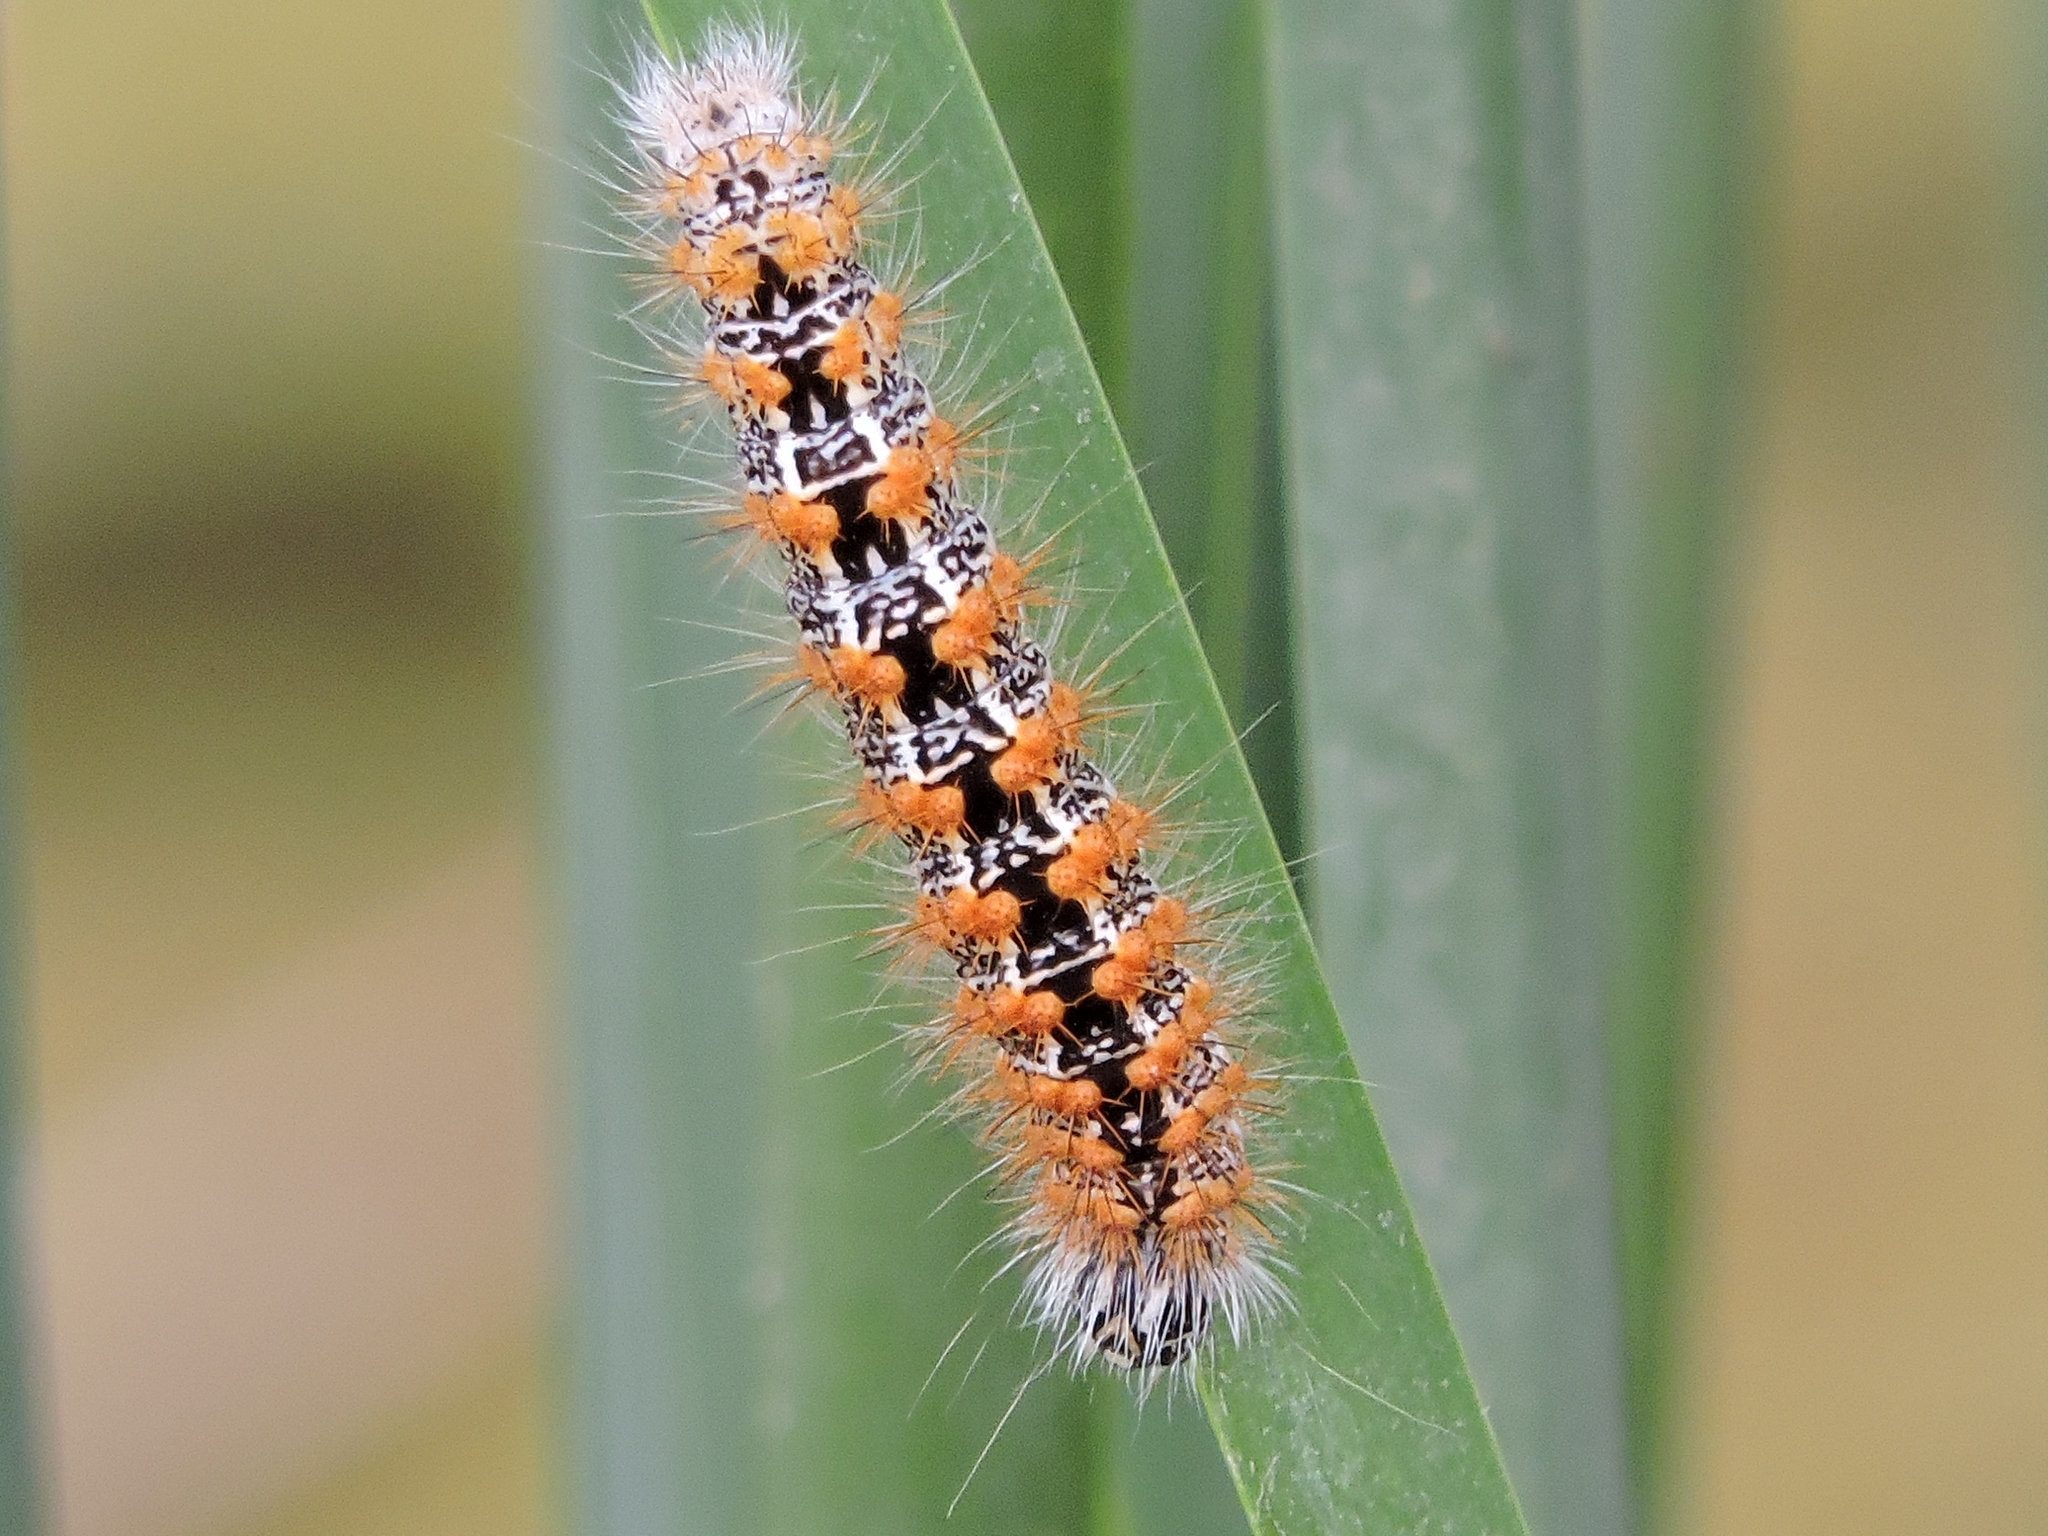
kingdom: Animalia
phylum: Arthropoda
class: Insecta
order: Lepidoptera
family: Noctuidae
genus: Acronicta
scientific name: Acronicta insularis
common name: Henry's marsh moth
